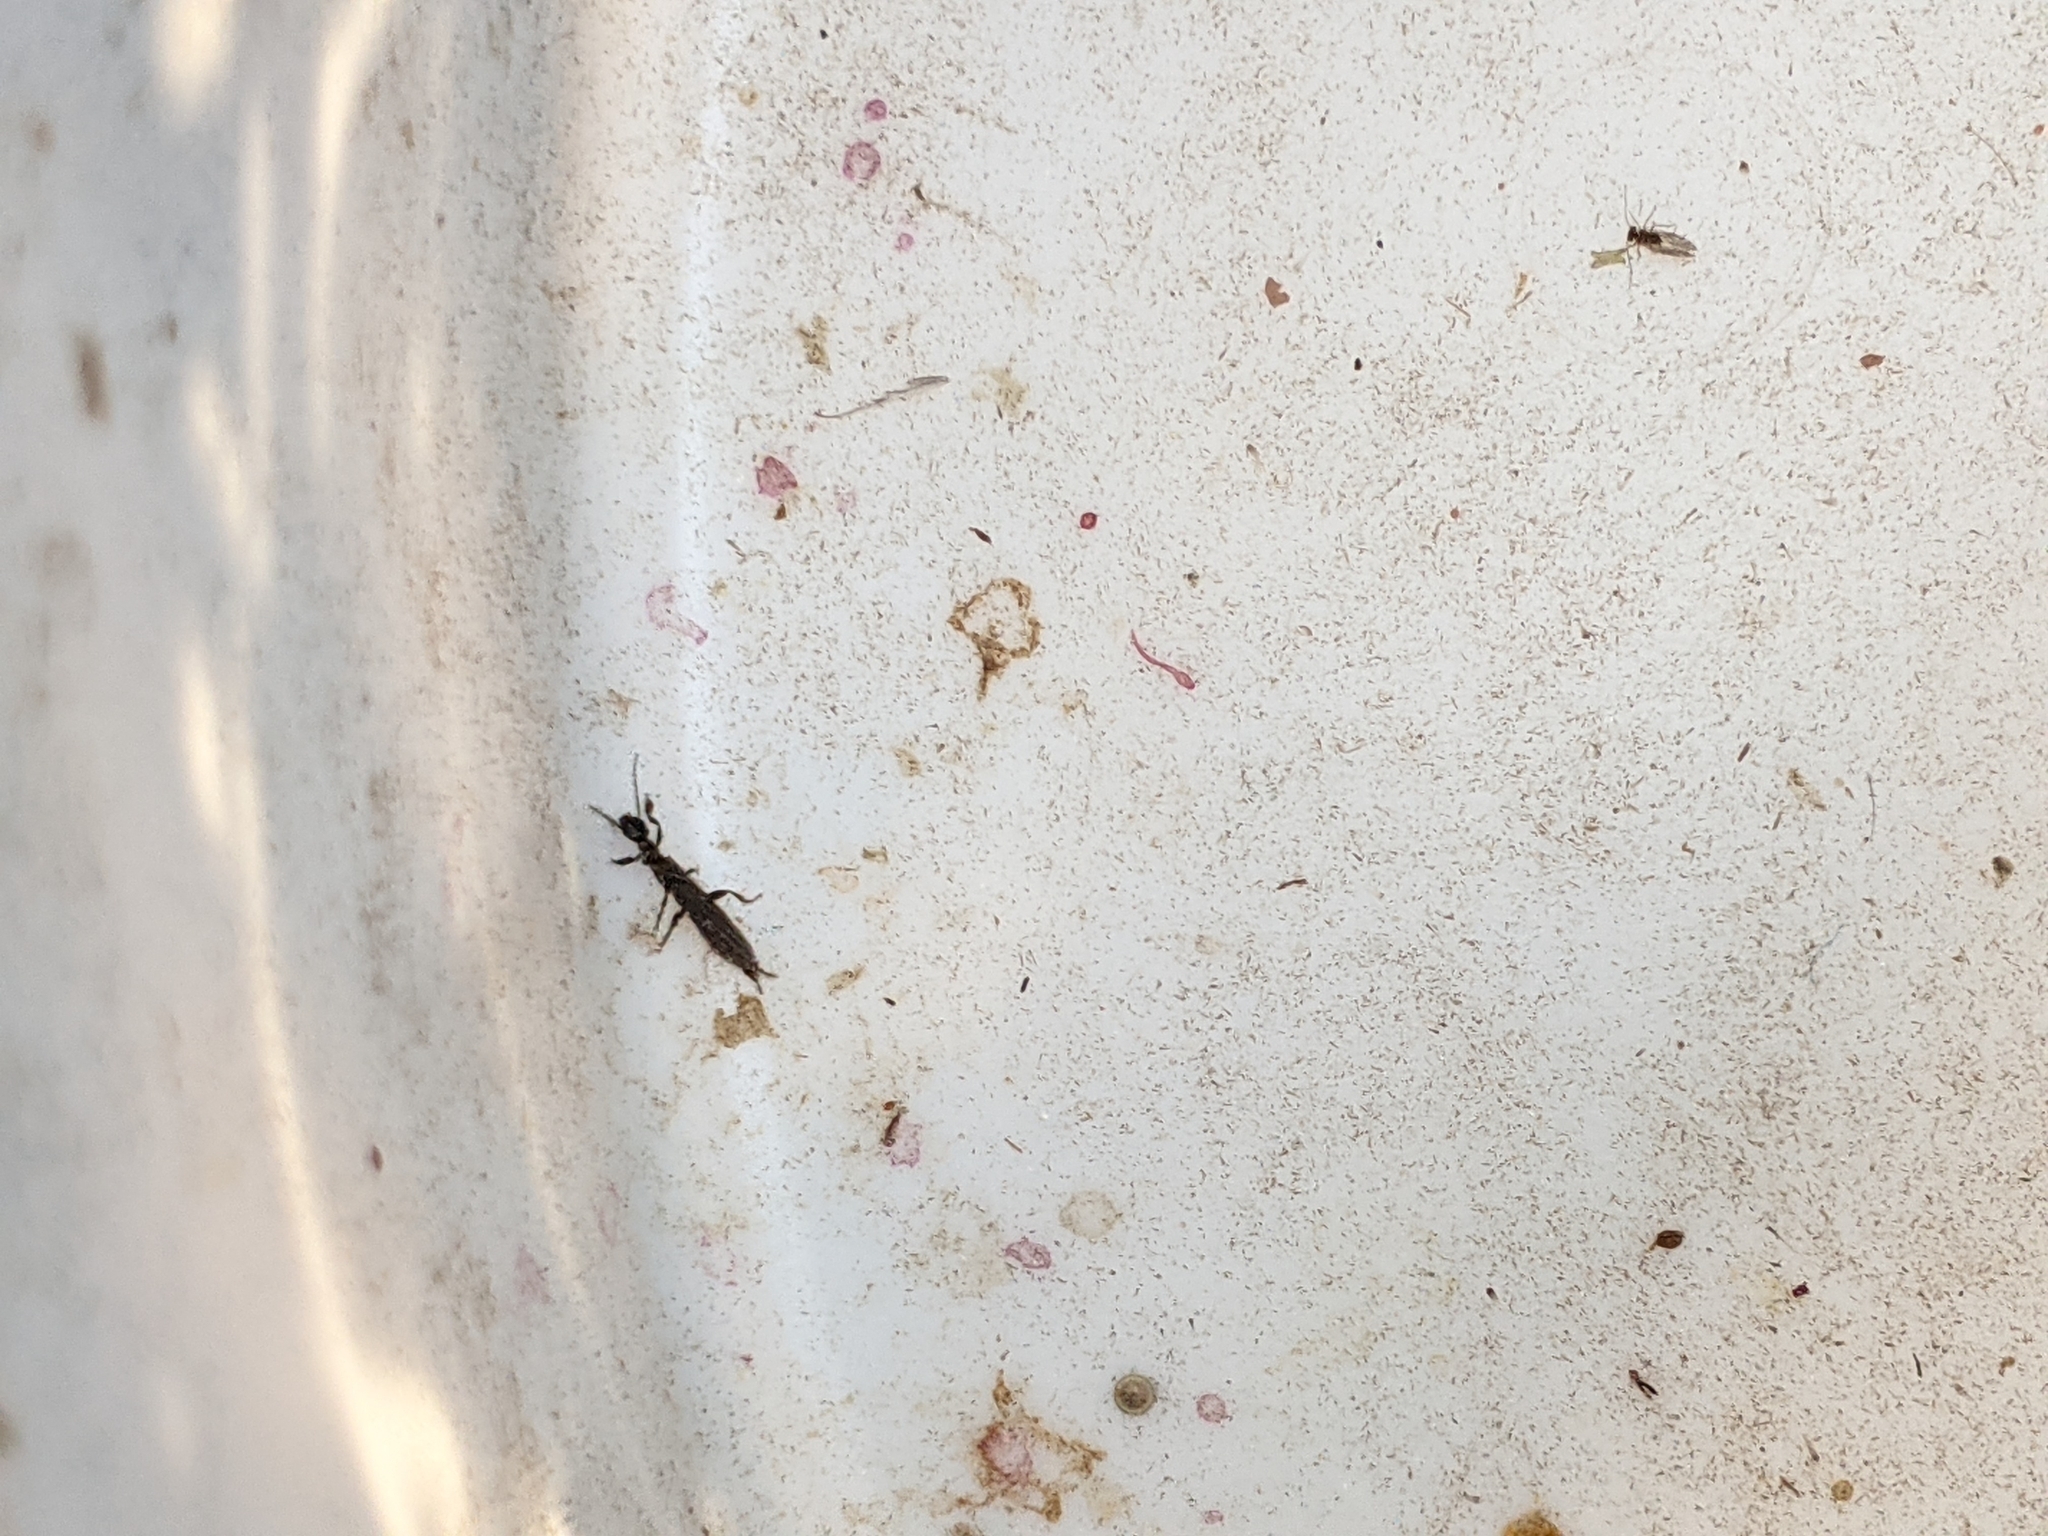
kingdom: Animalia
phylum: Arthropoda
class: Insecta
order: Embioptera
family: Oligotomidae
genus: Oligotoma
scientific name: Oligotoma nigra
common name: Black webspinner
